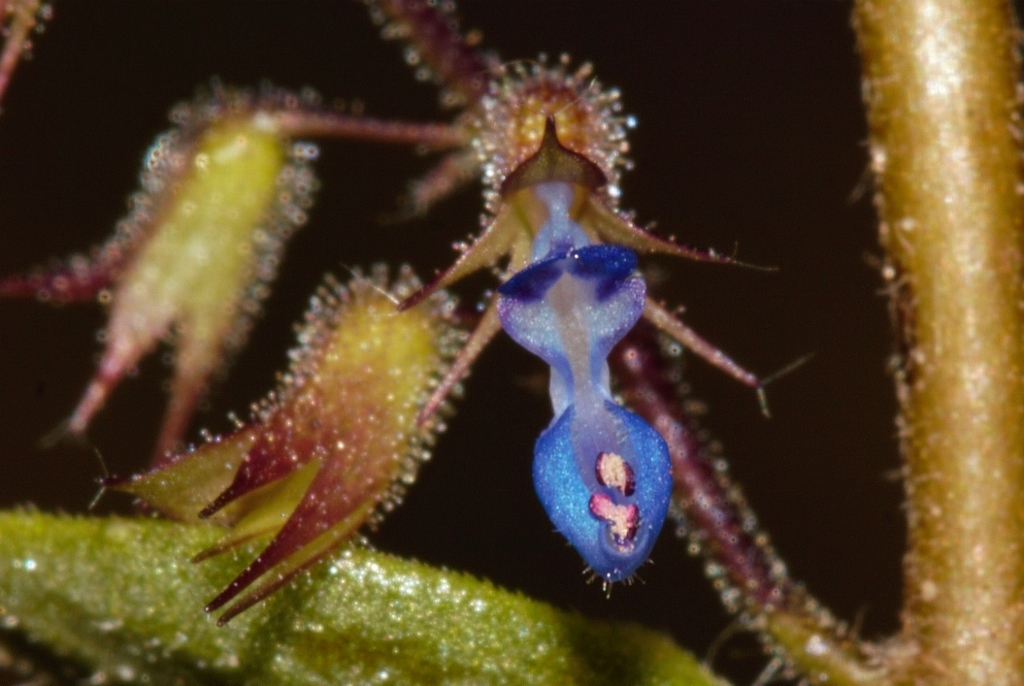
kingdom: Plantae
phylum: Tracheophyta
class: Magnoliopsida
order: Lamiales
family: Lamiaceae
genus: Coleus
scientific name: Coleus efoliatus
